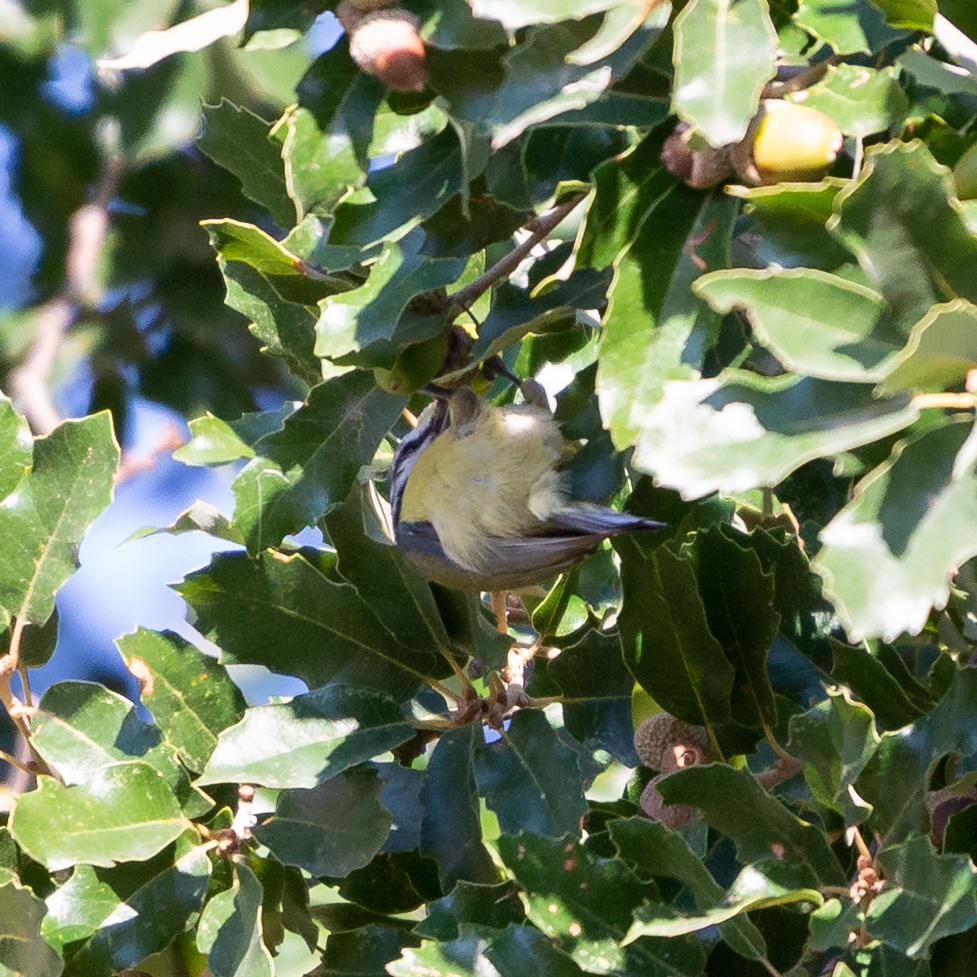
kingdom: Animalia
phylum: Chordata
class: Aves
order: Passeriformes
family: Paridae
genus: Cyanistes
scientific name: Cyanistes caeruleus
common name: Eurasian blue tit
